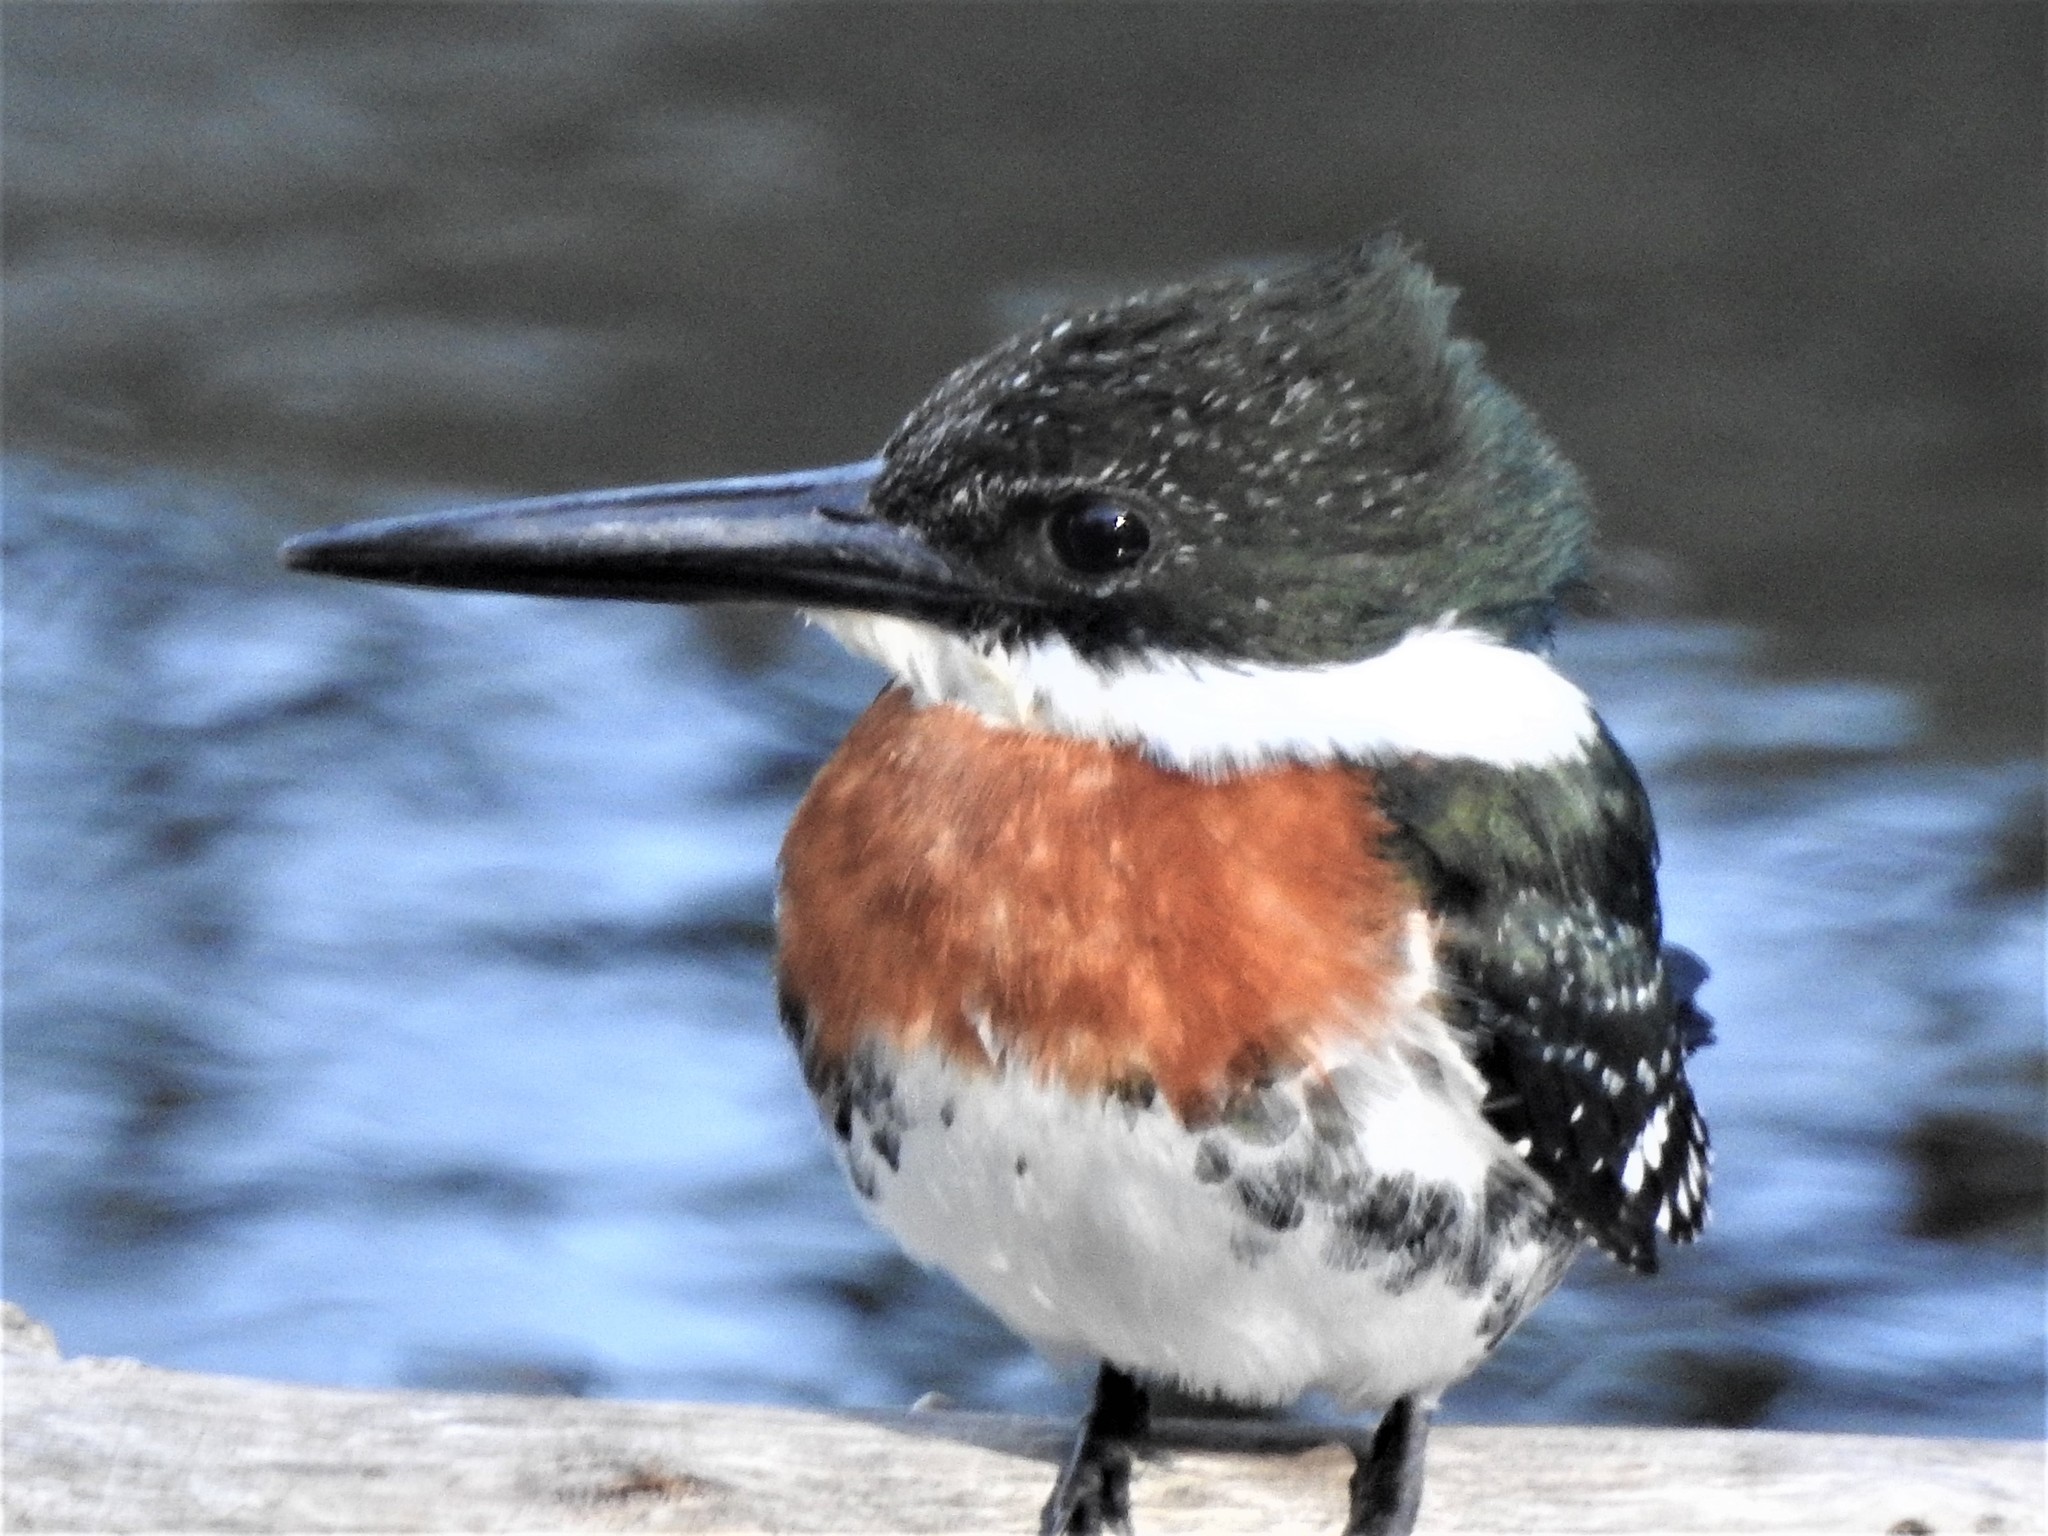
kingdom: Animalia
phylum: Chordata
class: Aves
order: Coraciiformes
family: Alcedinidae
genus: Chloroceryle
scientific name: Chloroceryle americana
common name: Green kingfisher
